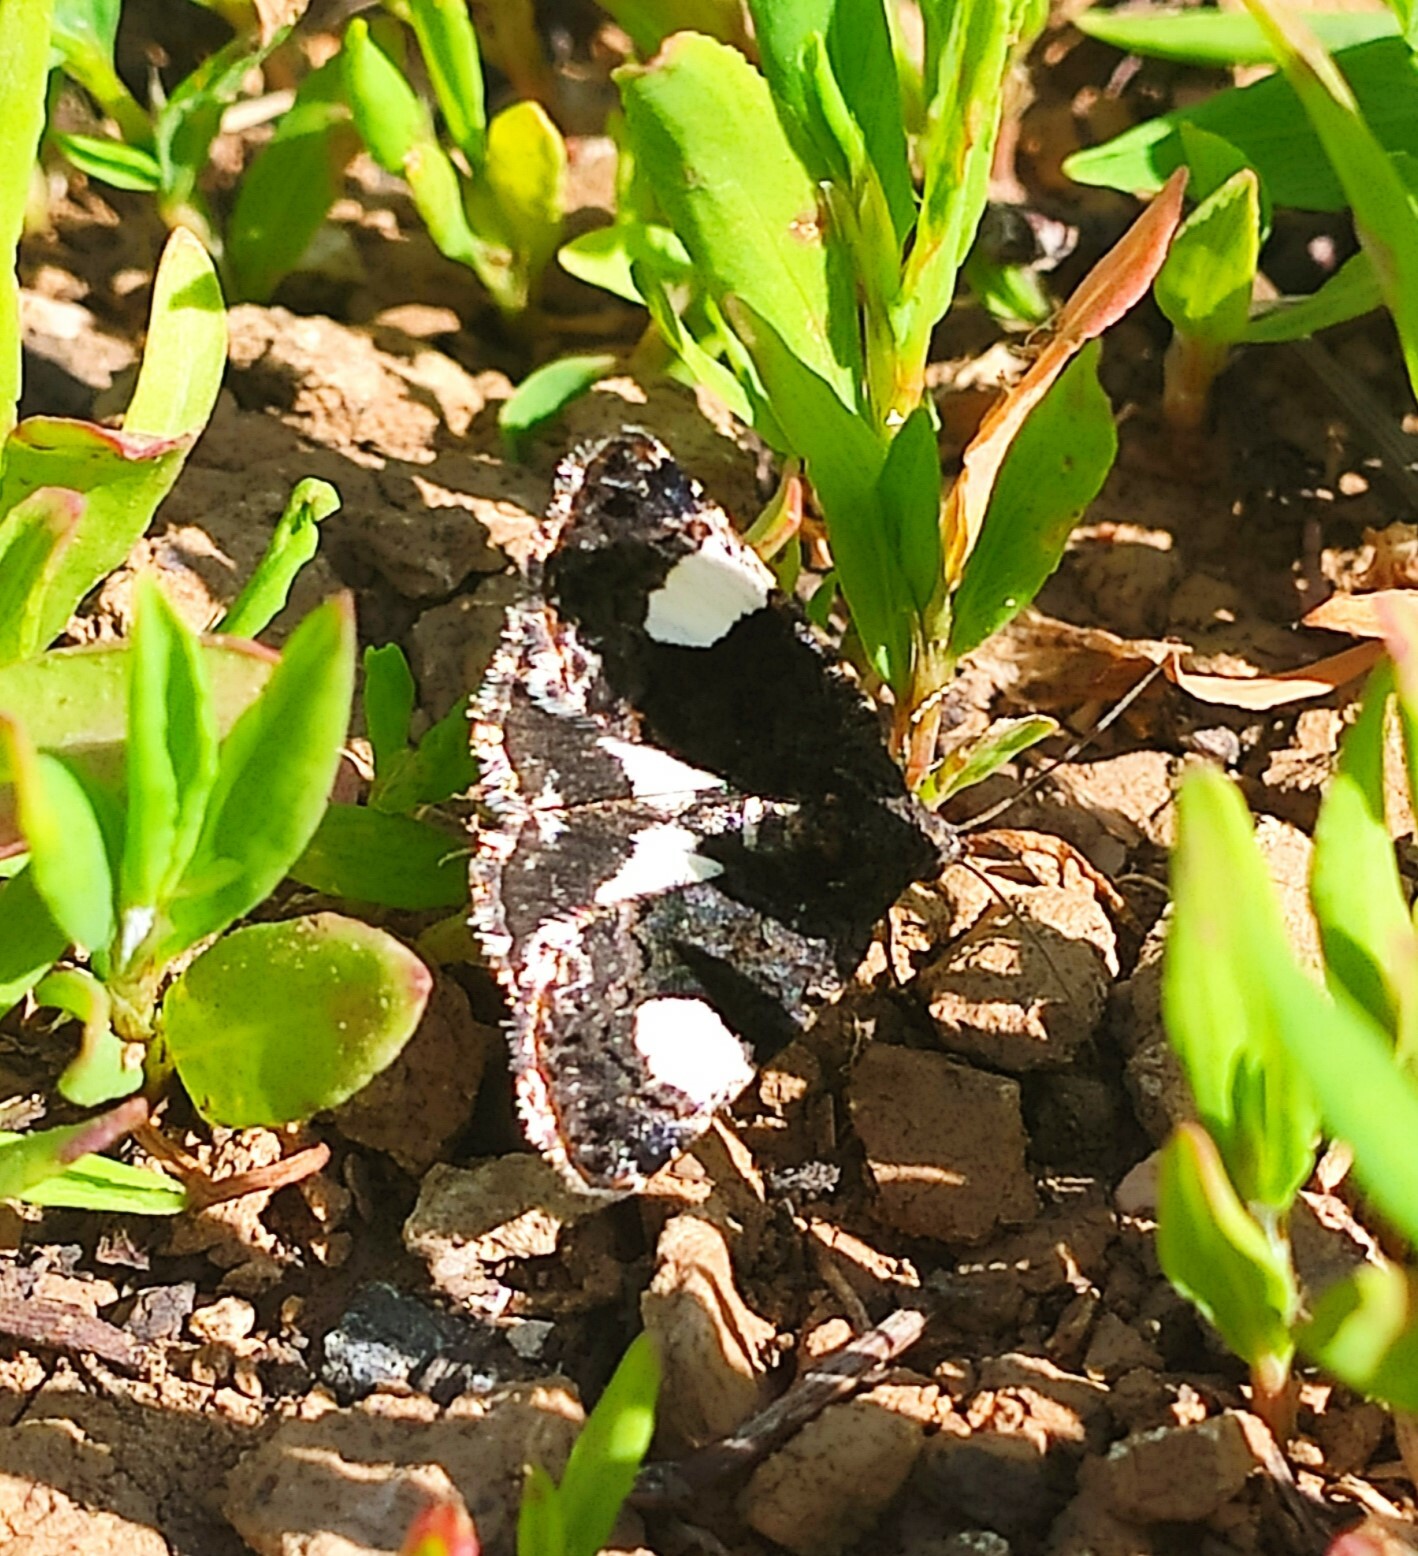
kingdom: Animalia
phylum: Arthropoda
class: Insecta
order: Lepidoptera
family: Erebidae
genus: Tyta
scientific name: Tyta luctuosa
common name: Four-spotted
